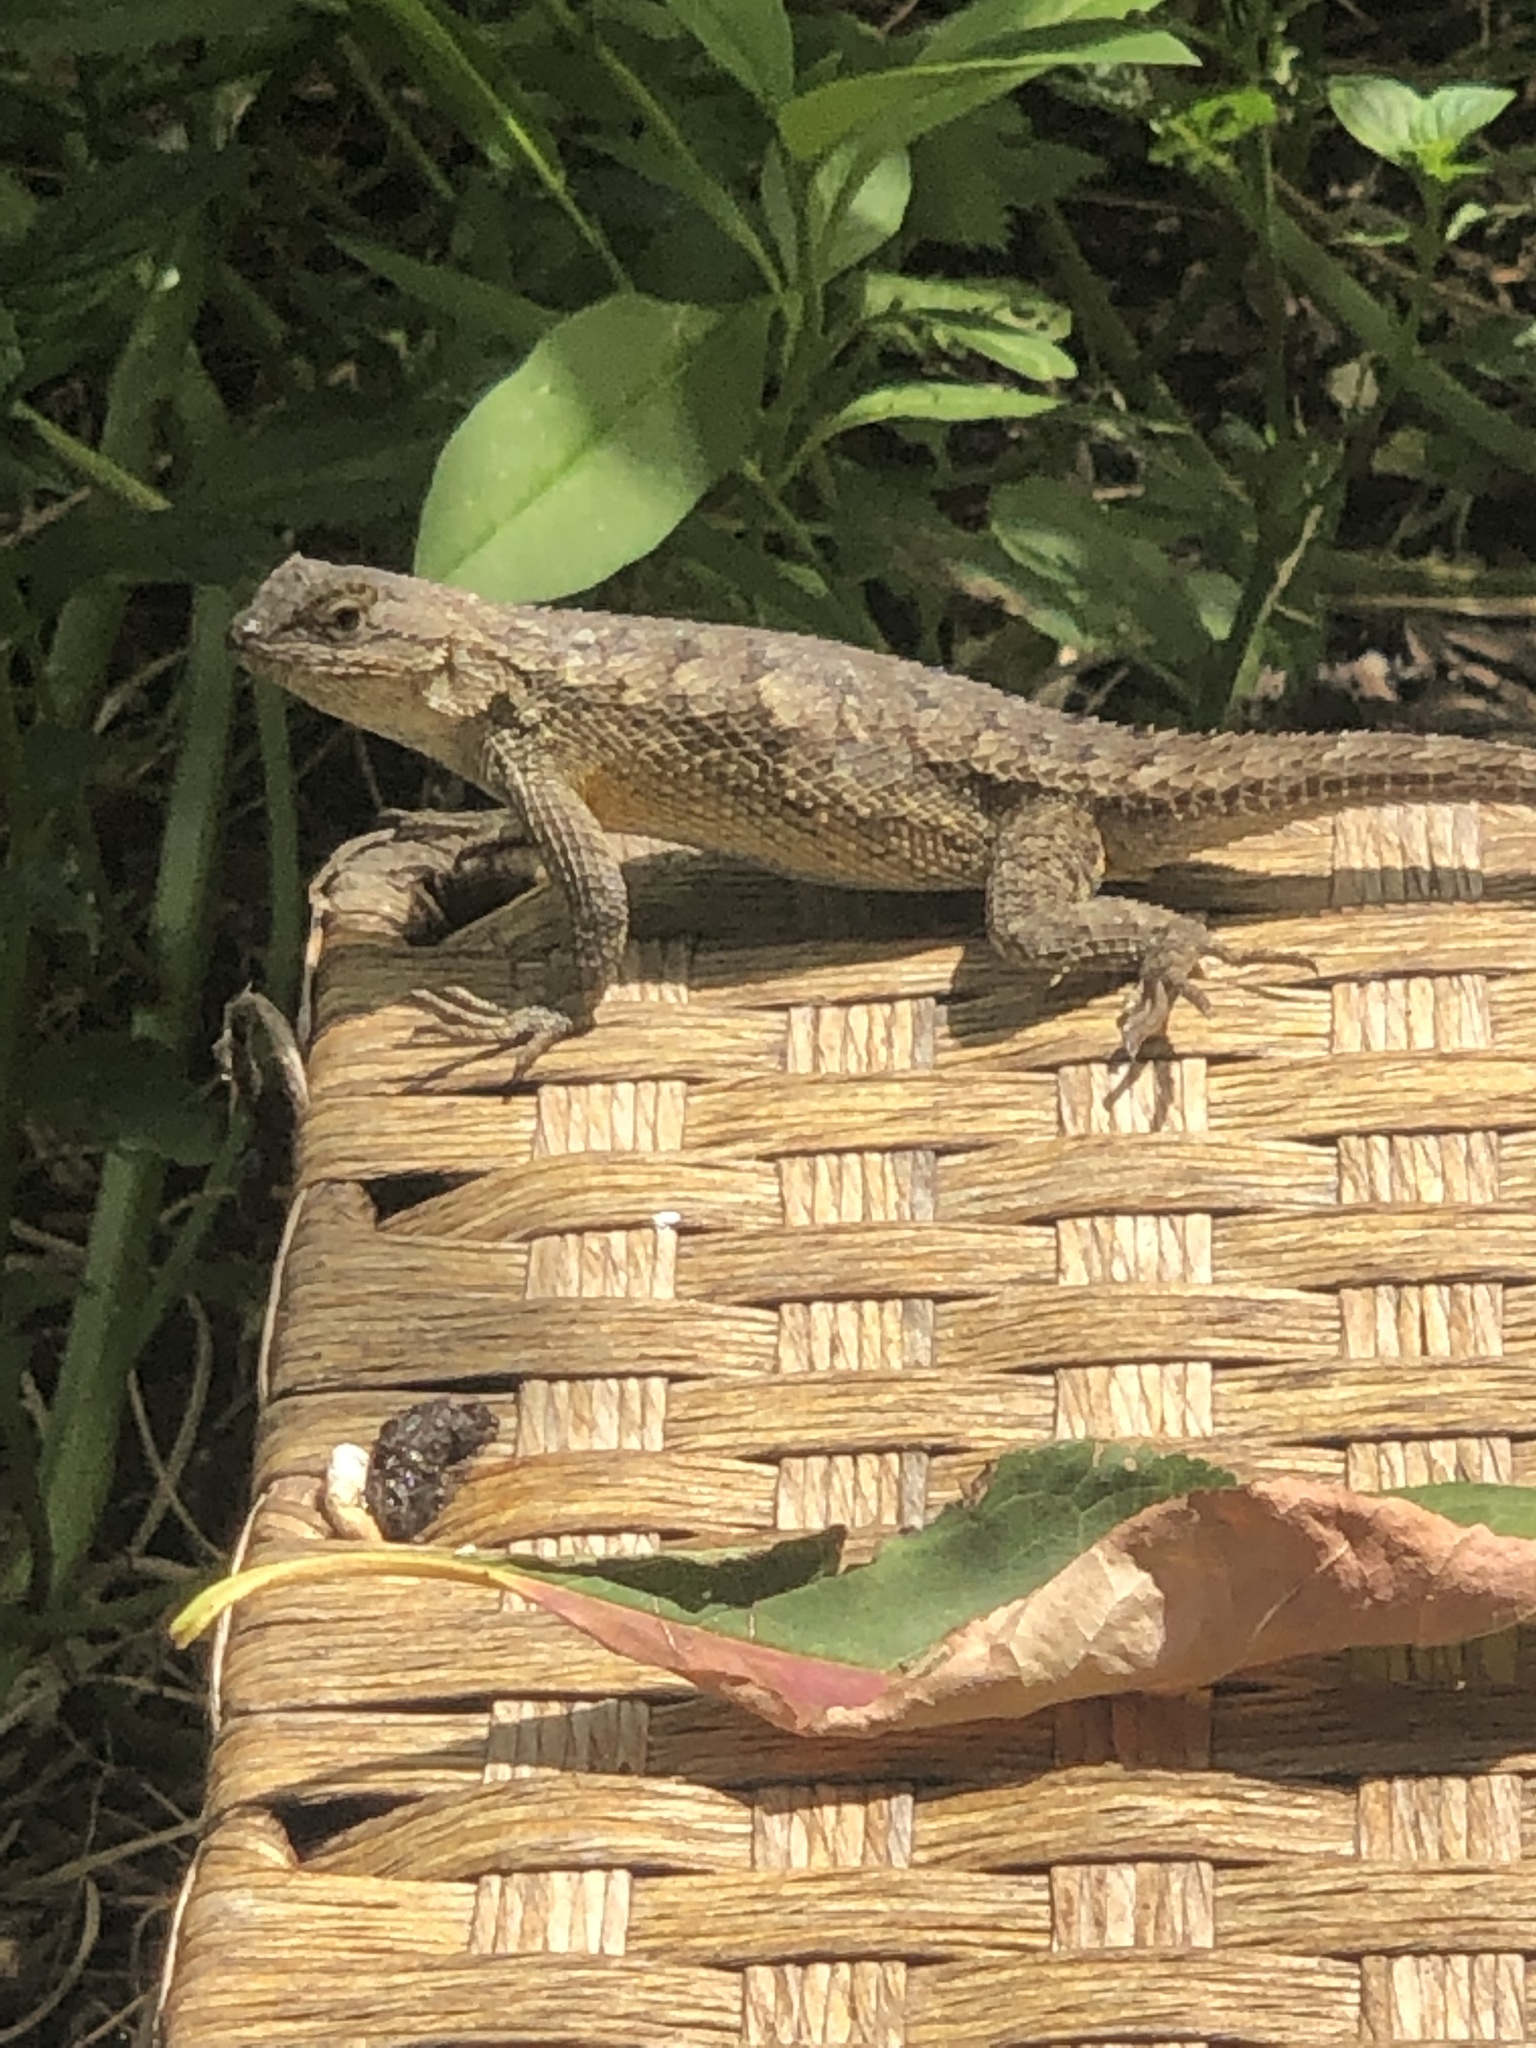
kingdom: Animalia
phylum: Chordata
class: Squamata
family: Phrynosomatidae
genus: Sceloporus
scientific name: Sceloporus occidentalis
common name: Western fence lizard
